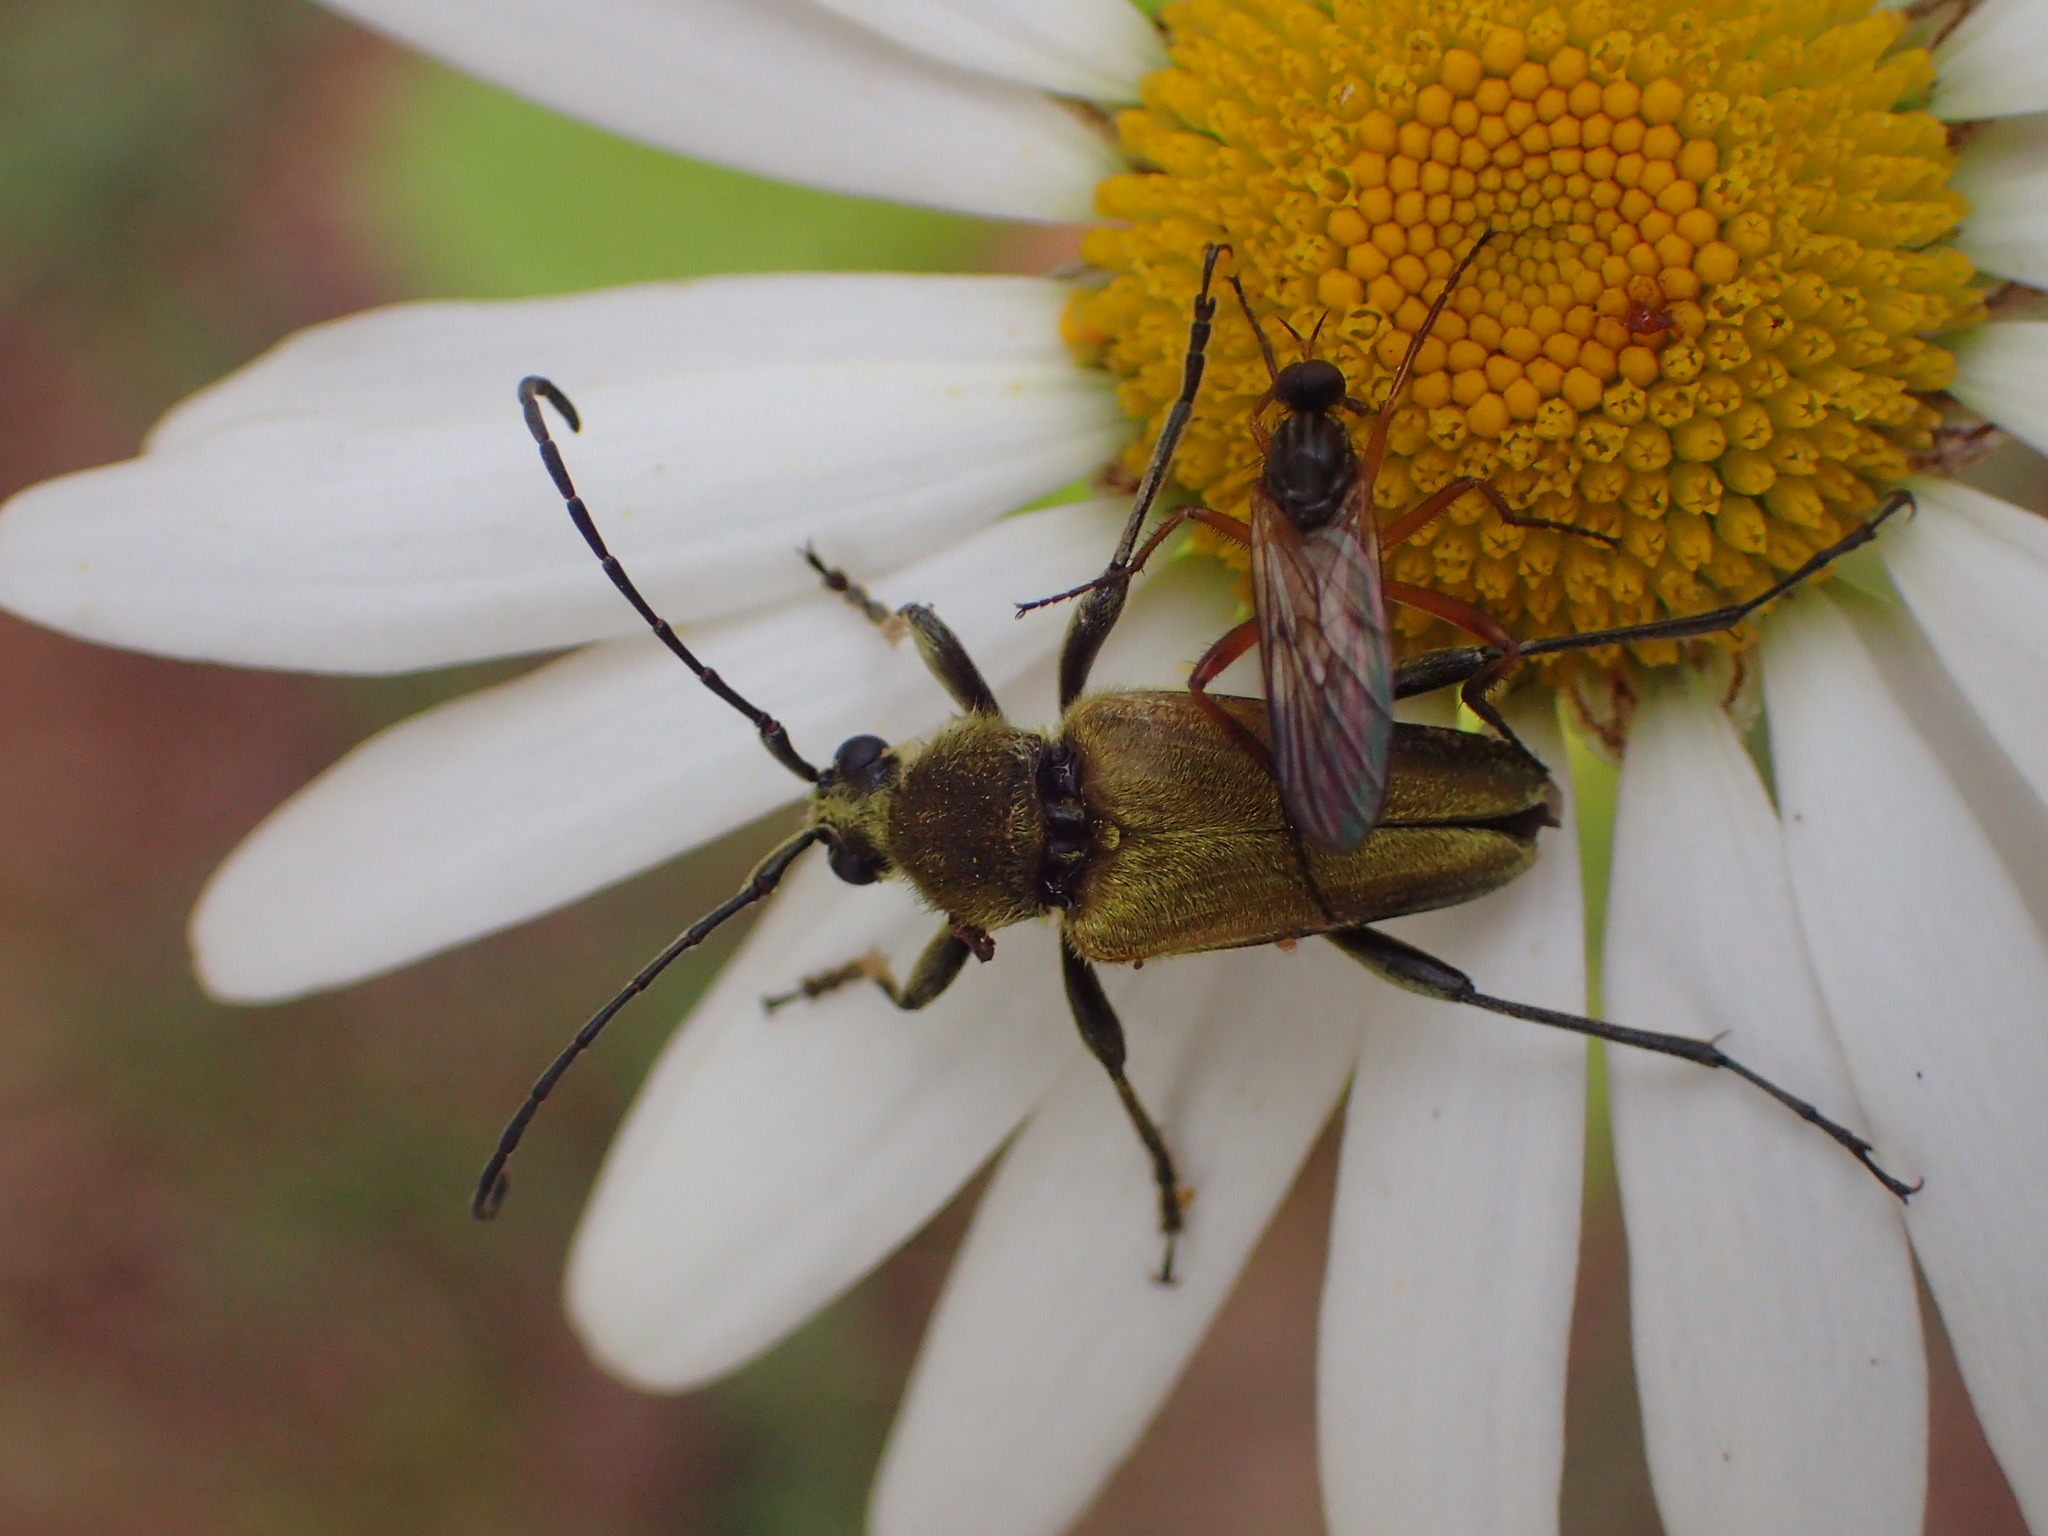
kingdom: Animalia
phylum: Arthropoda
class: Insecta
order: Coleoptera
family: Cerambycidae
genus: Cosmosalia
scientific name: Cosmosalia chrysocoma
